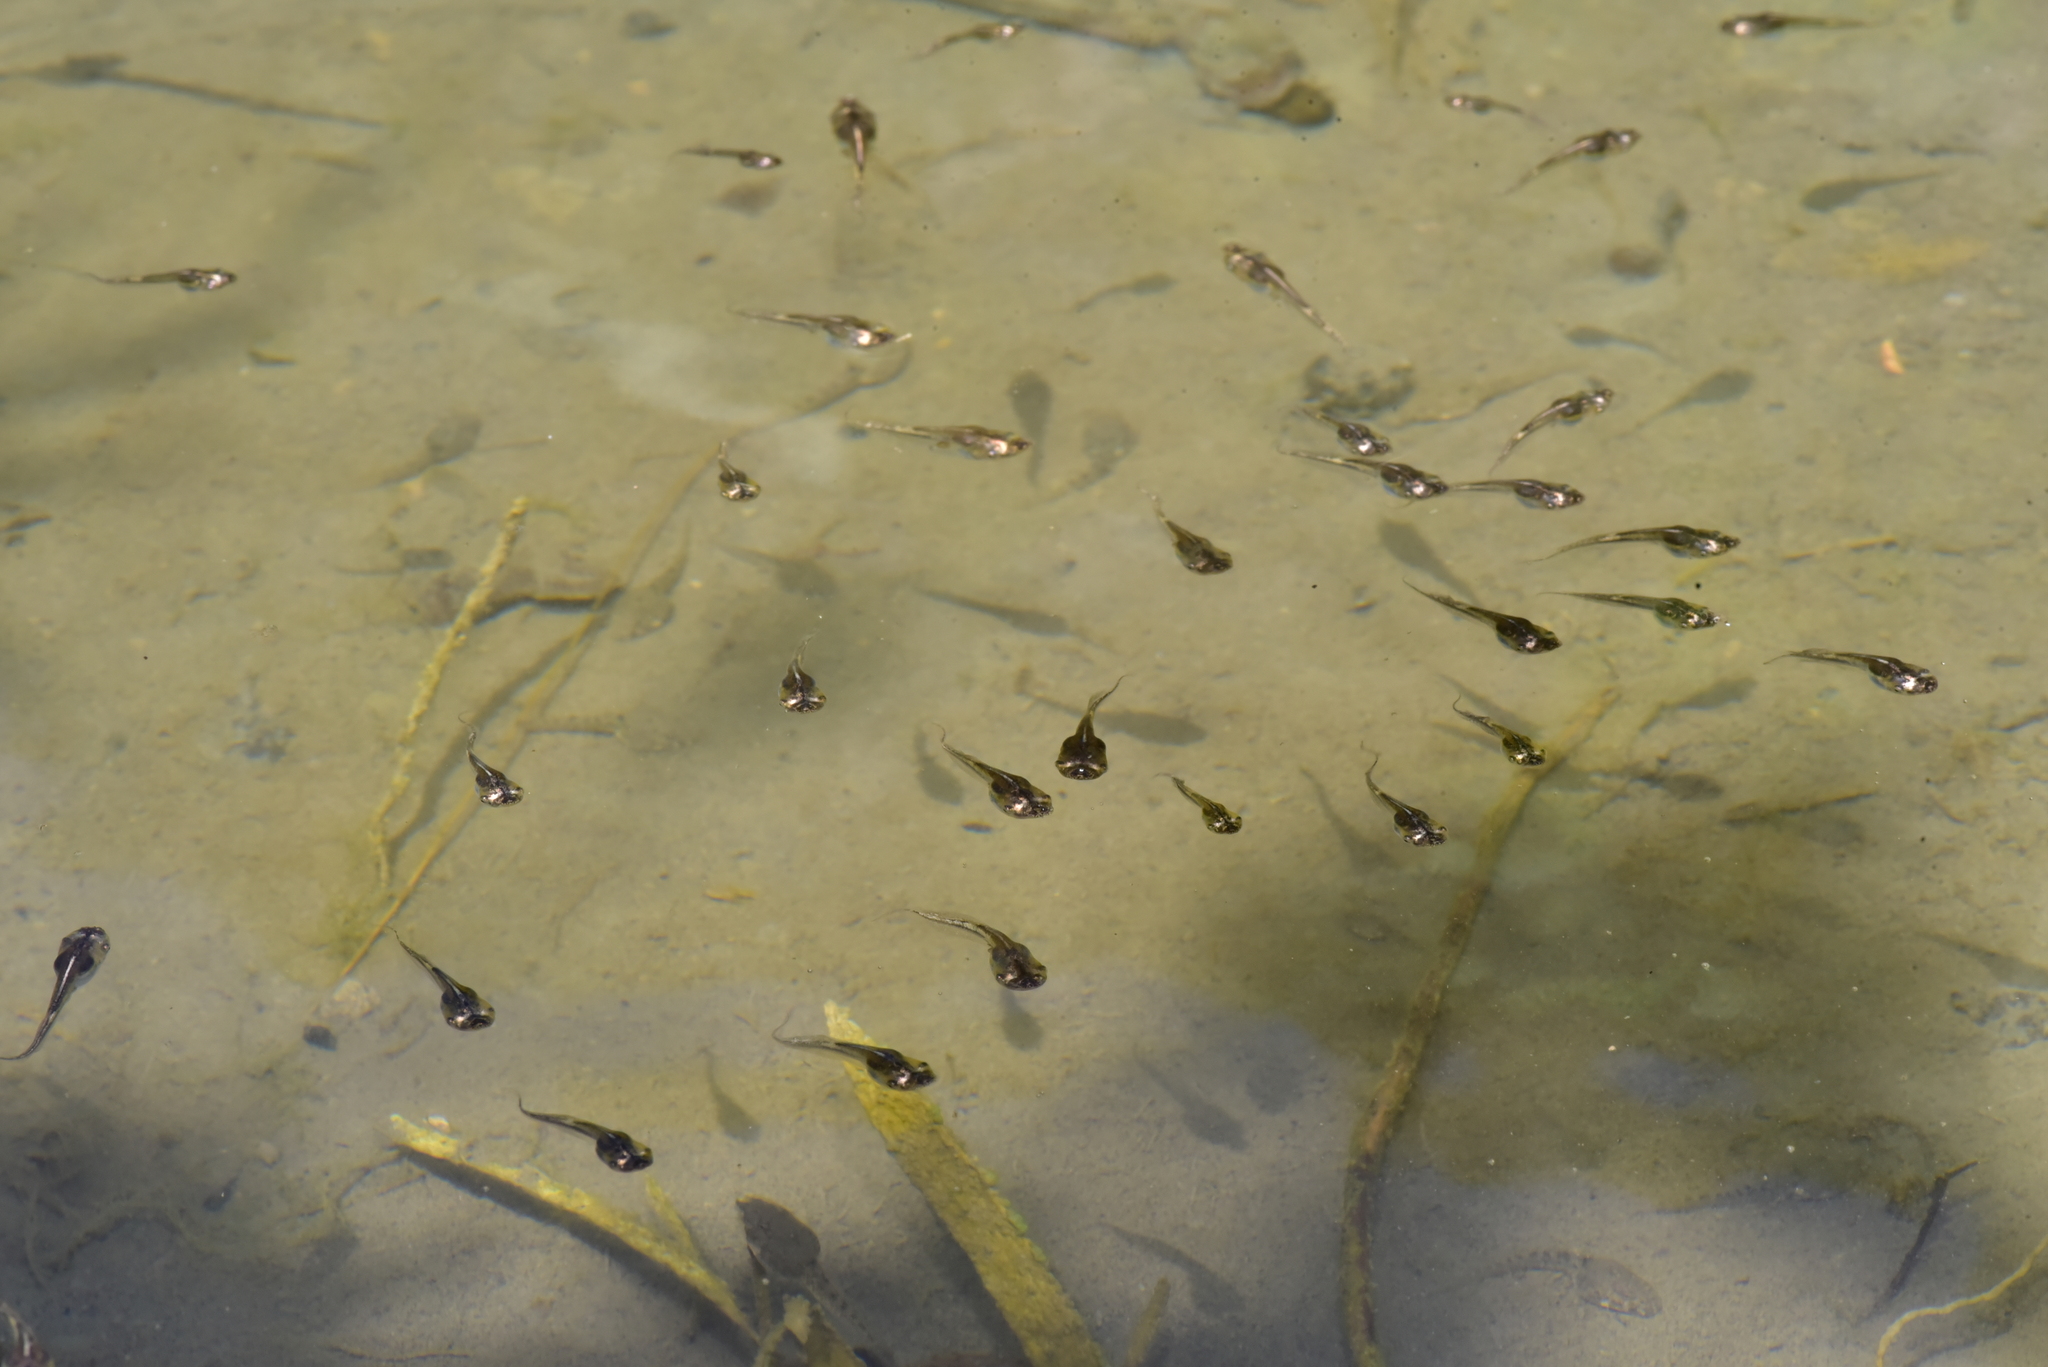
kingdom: Animalia
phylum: Chordata
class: Amphibia
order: Anura
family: Microhylidae
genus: Microhyla
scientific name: Microhyla heymonsi
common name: Taiwan rice frog,dark sided chorus frog
